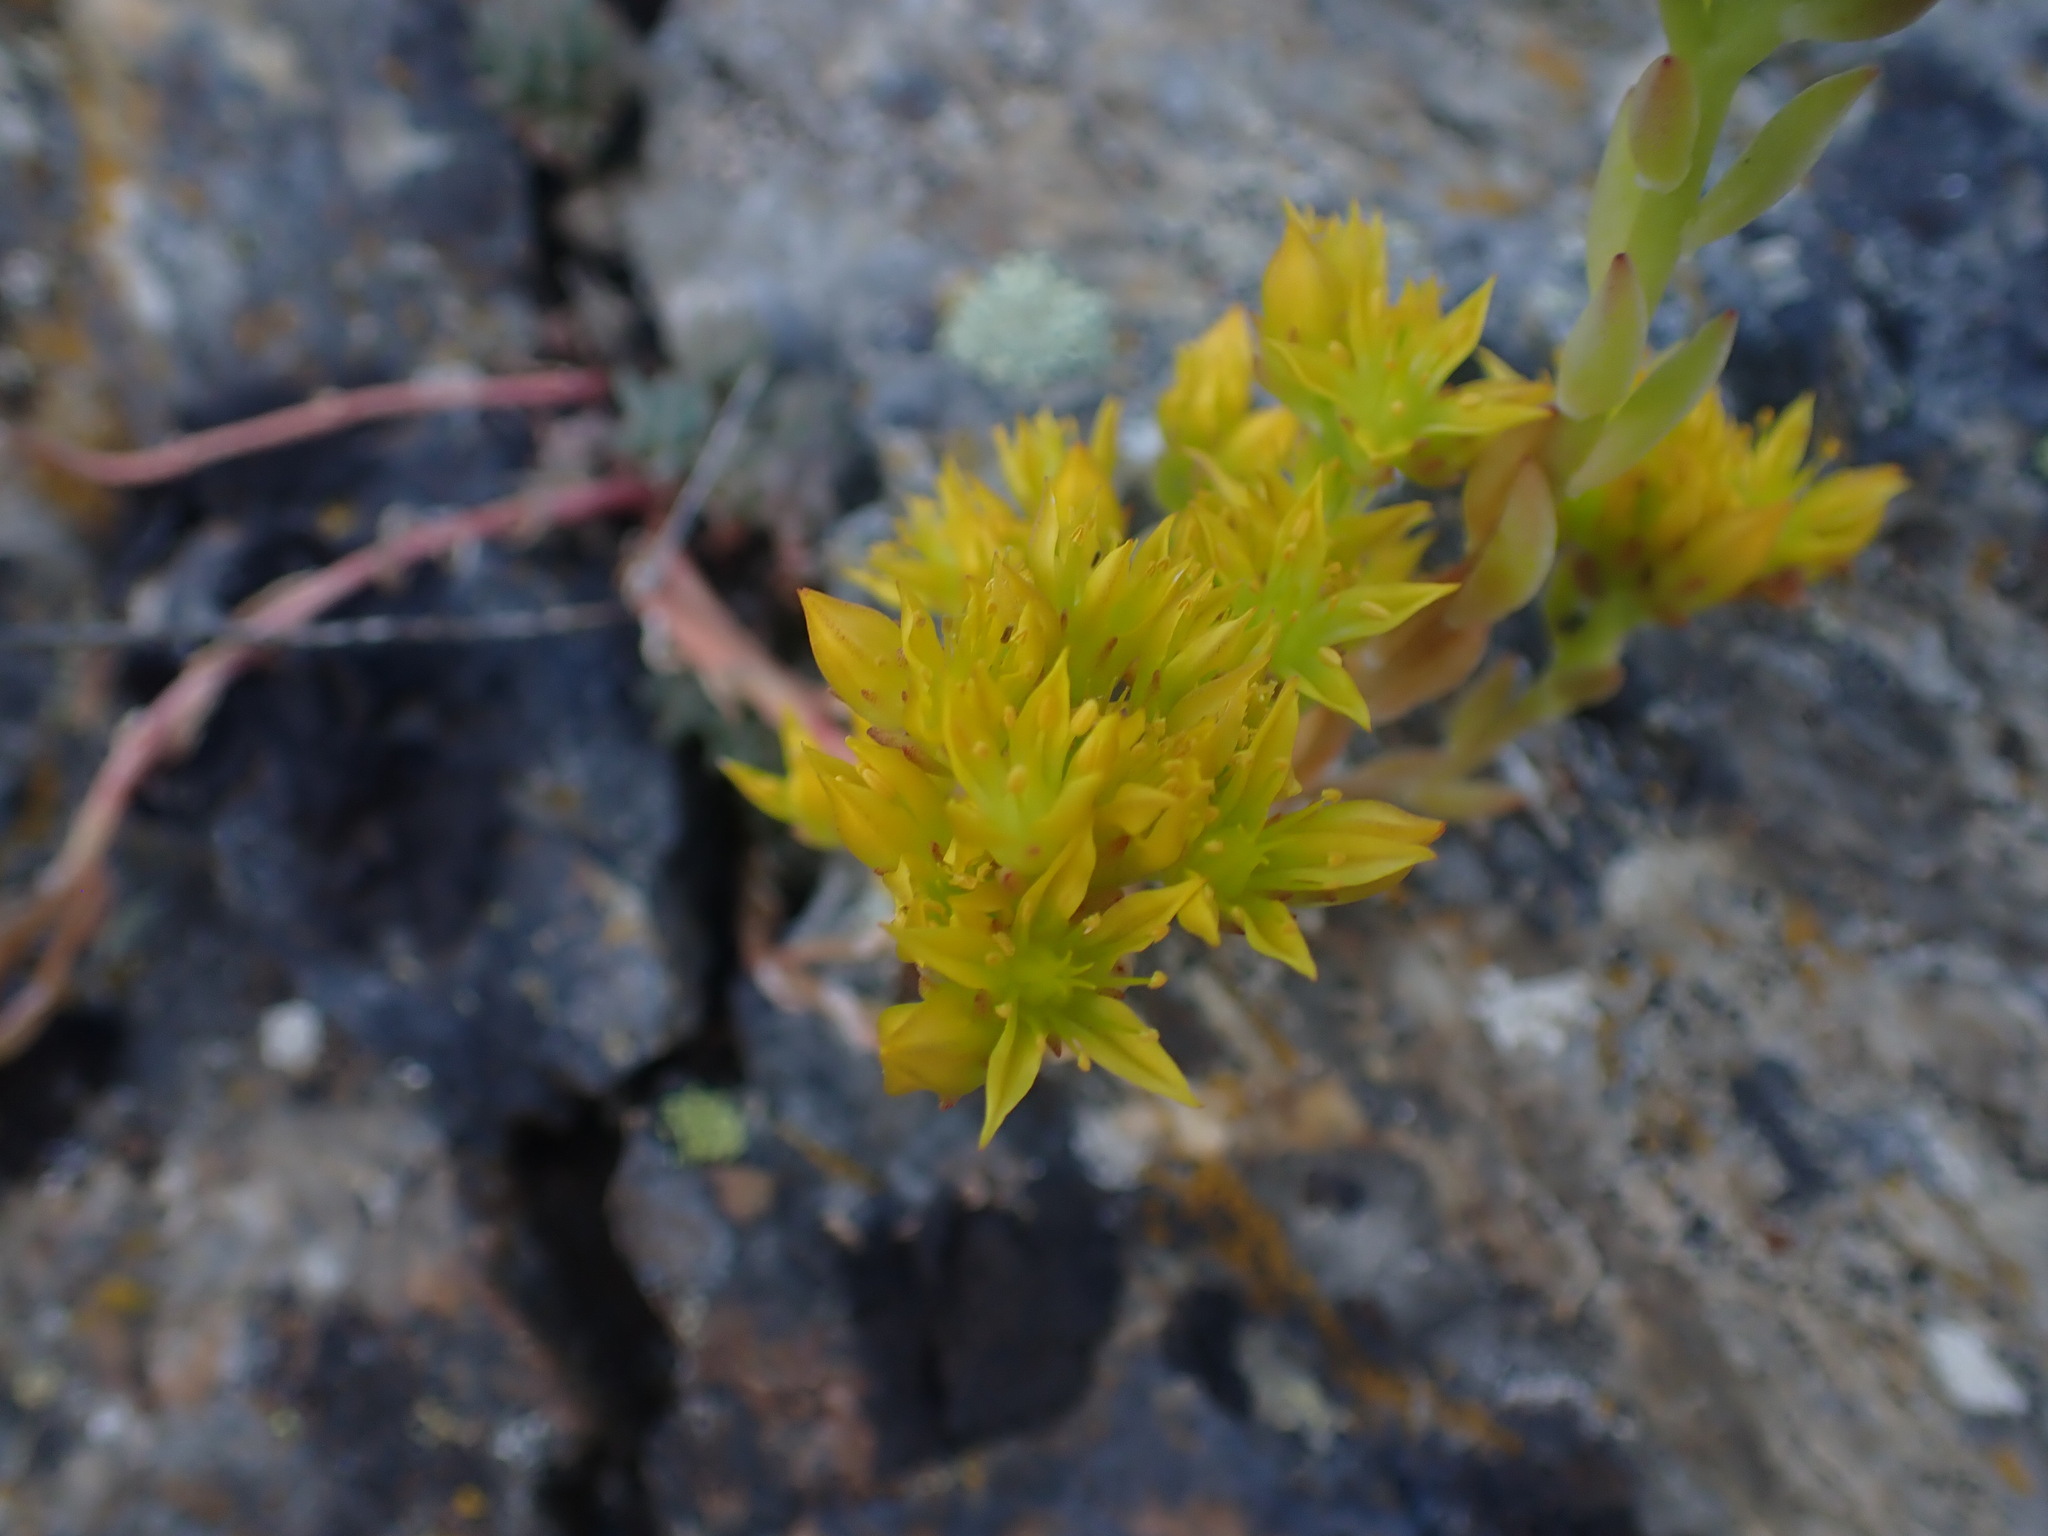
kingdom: Plantae
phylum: Tracheophyta
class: Magnoliopsida
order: Saxifragales
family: Crassulaceae
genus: Sedum
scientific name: Sedum lanceolatum
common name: Common stonecrop
